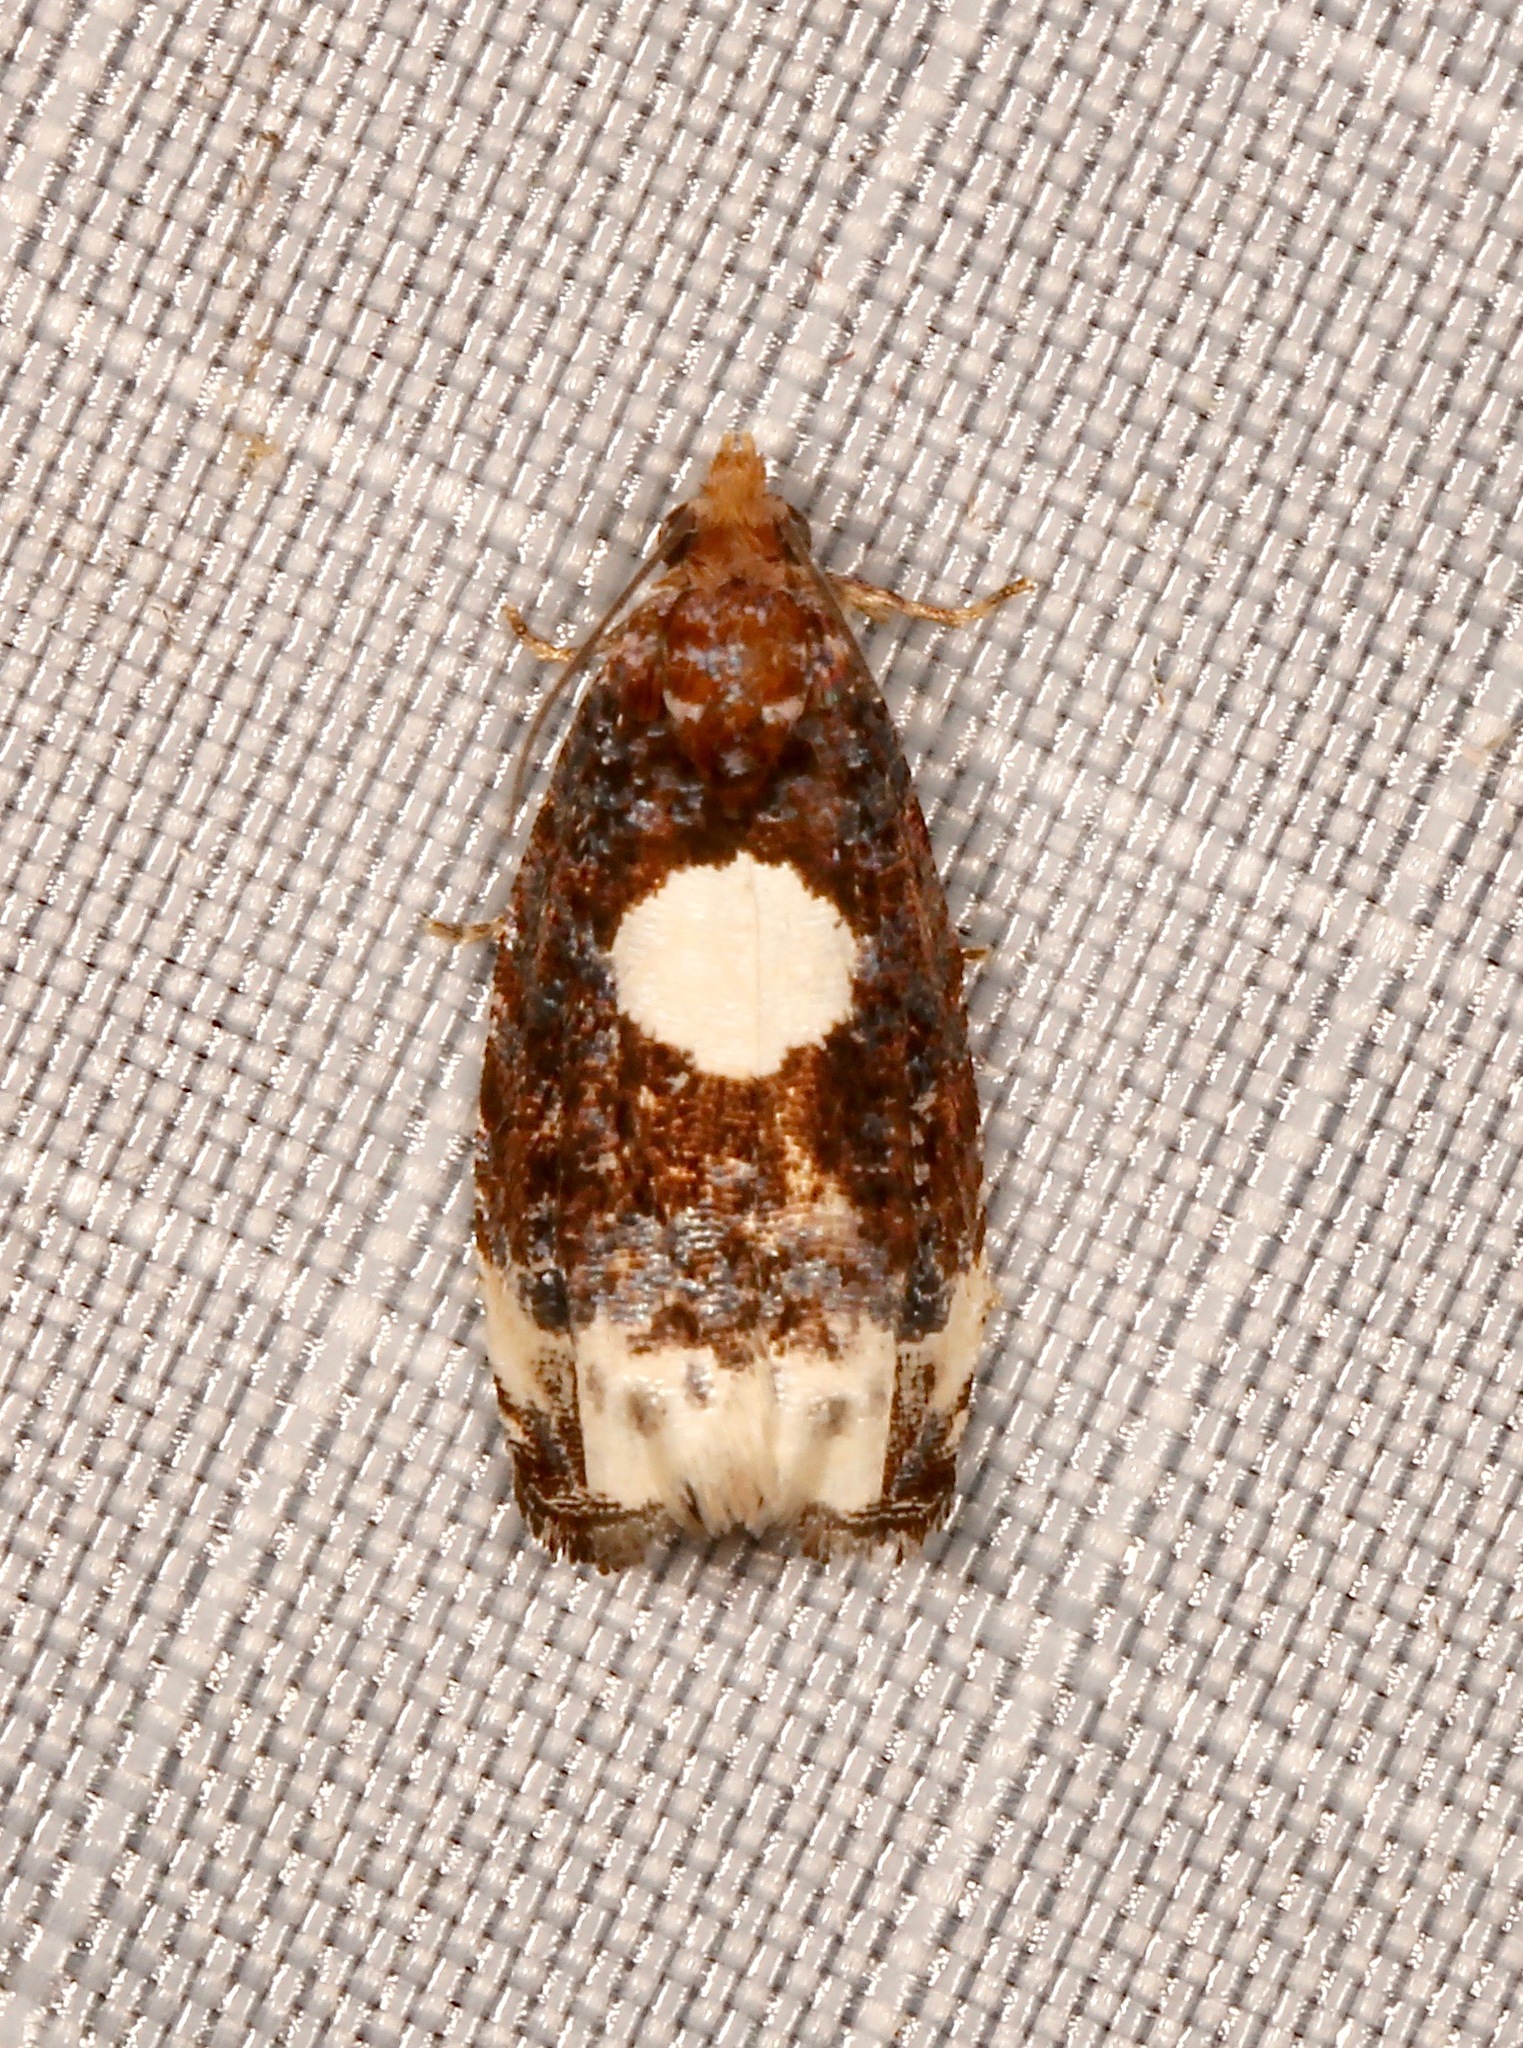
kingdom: Animalia
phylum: Arthropoda
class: Insecta
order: Lepidoptera
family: Tortricidae
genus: Olethreutes
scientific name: Olethreutes devotana
